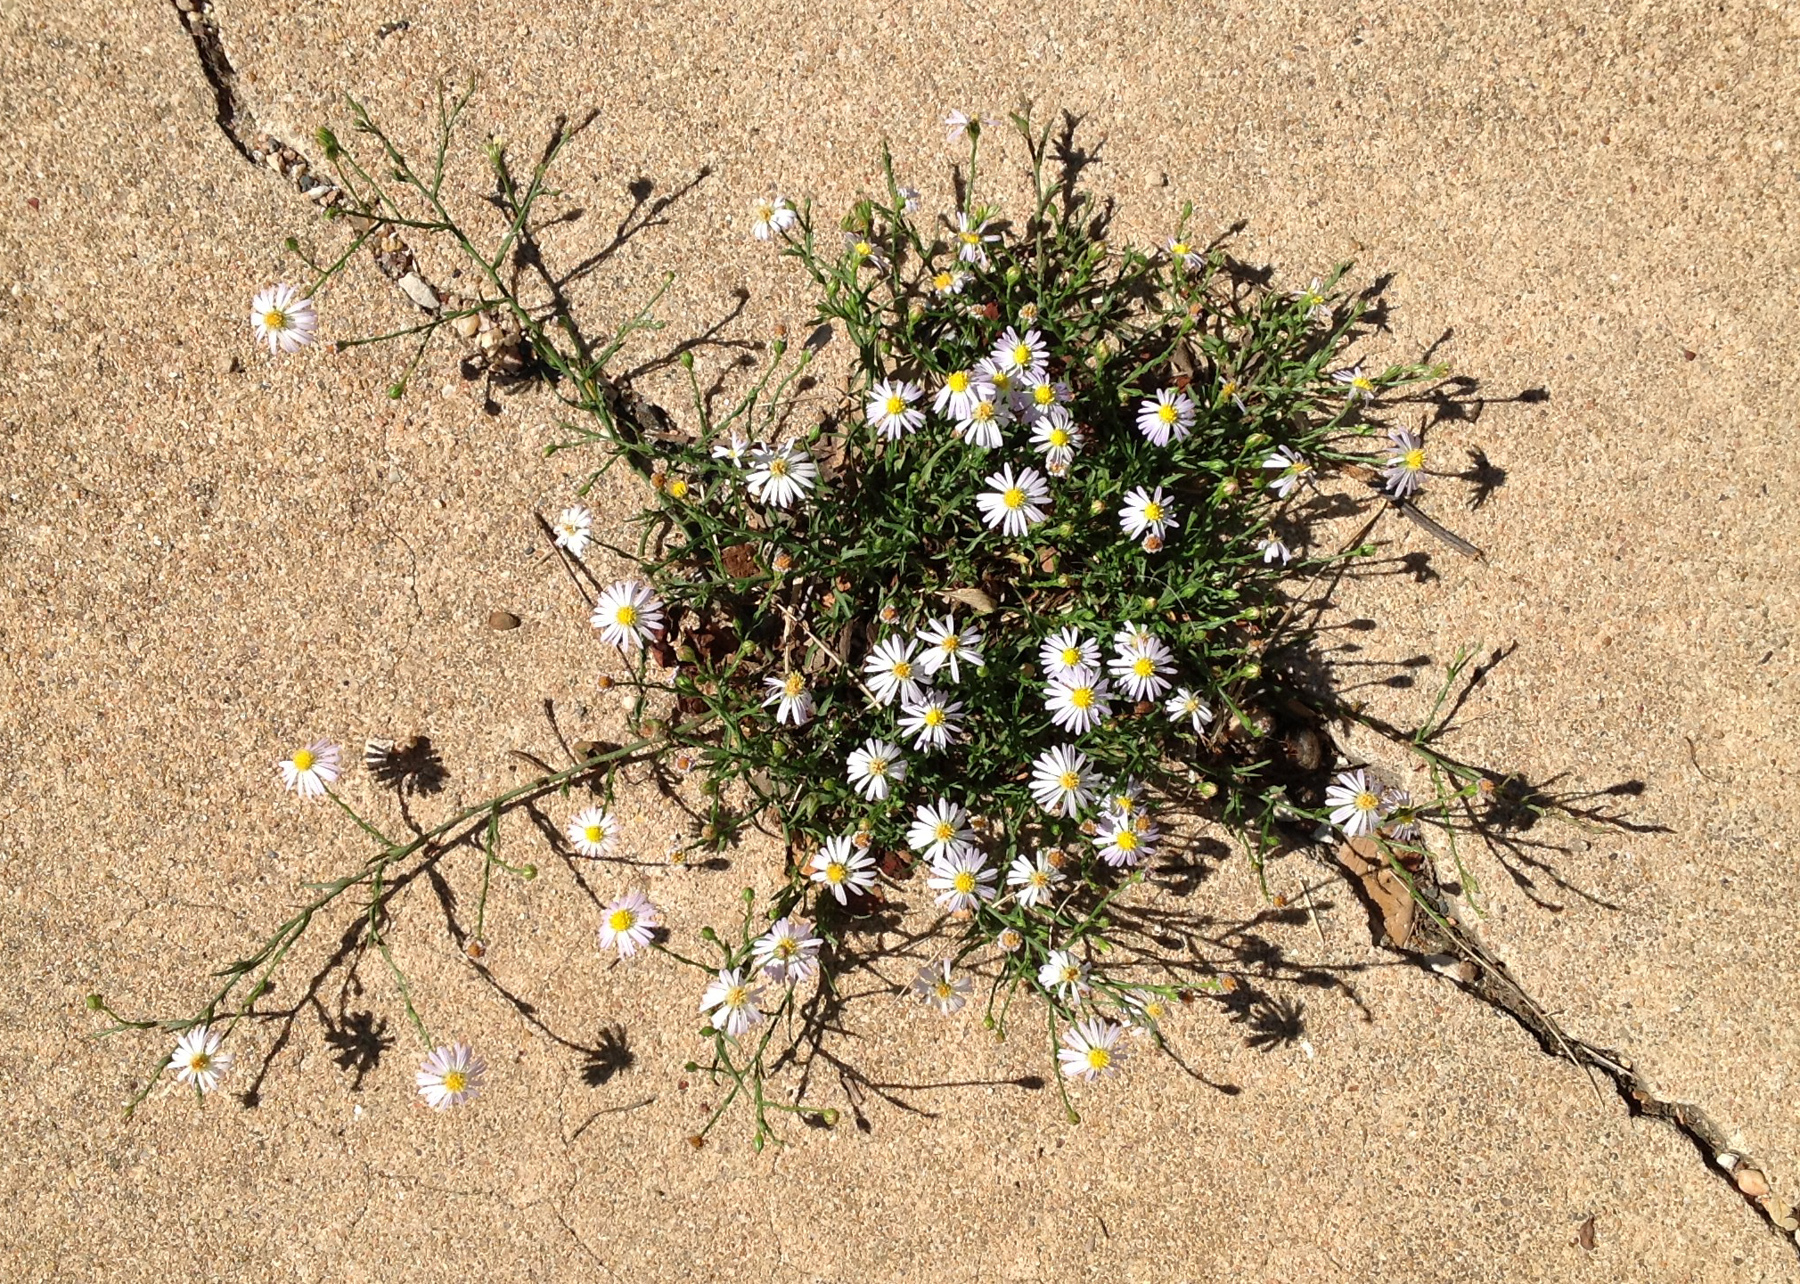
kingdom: Plantae
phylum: Tracheophyta
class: Magnoliopsida
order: Asterales
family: Asteraceae
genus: Symphyotrichum
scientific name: Symphyotrichum divaricatum
